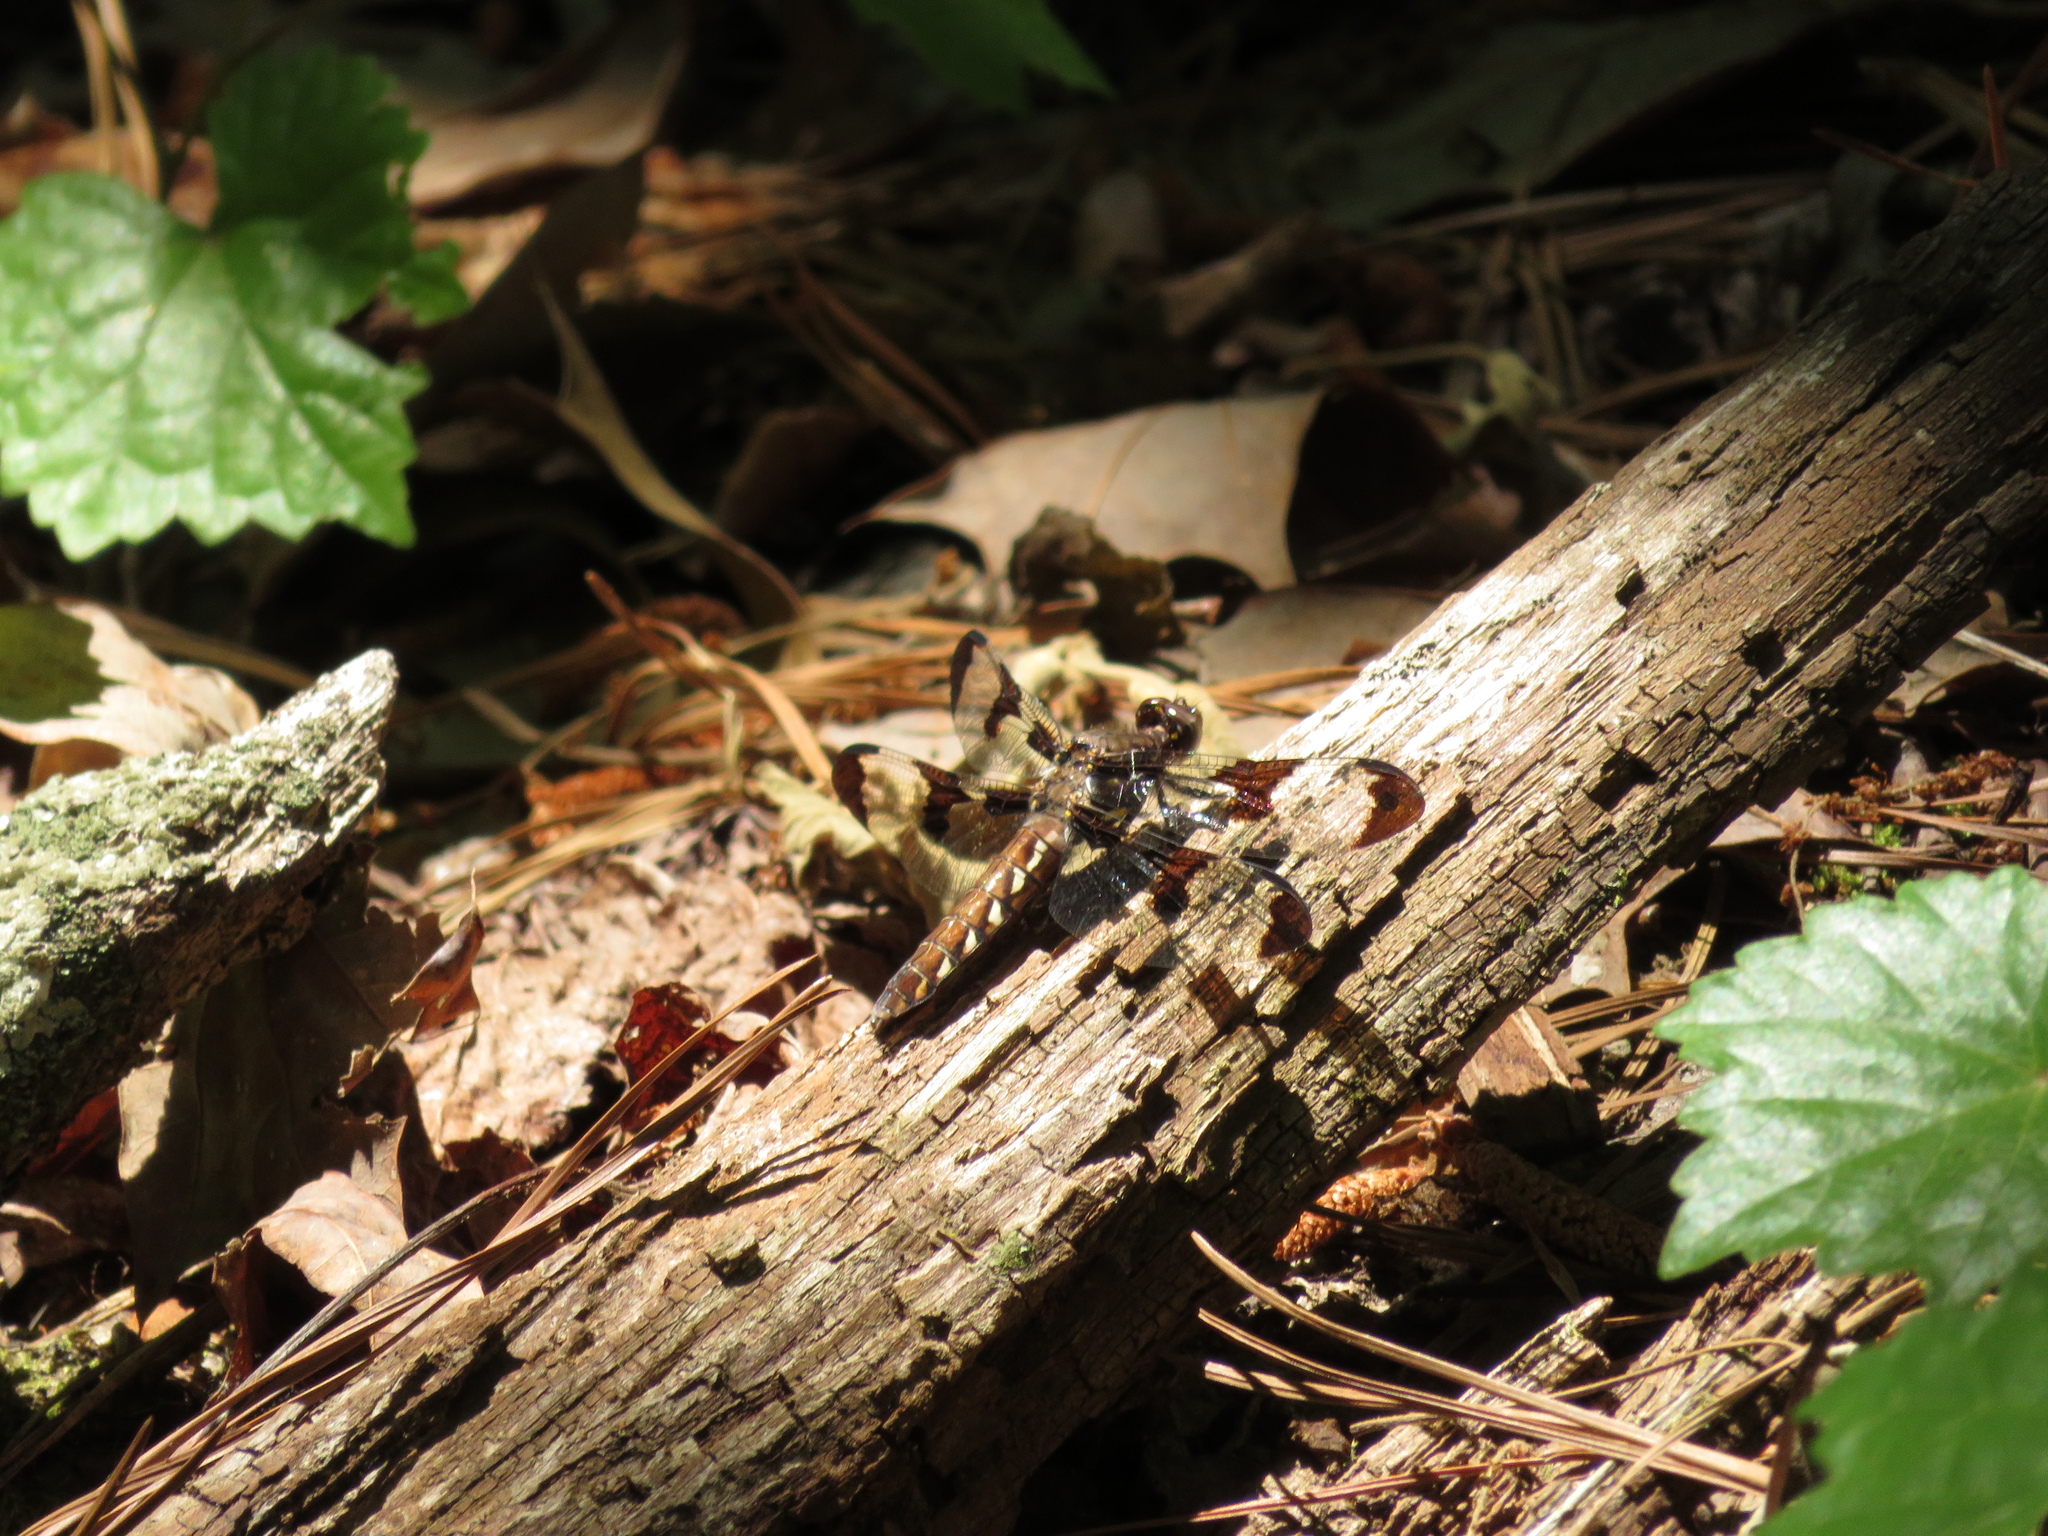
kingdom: Animalia
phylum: Arthropoda
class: Insecta
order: Odonata
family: Libellulidae
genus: Plathemis
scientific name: Plathemis lydia
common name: Common whitetail
